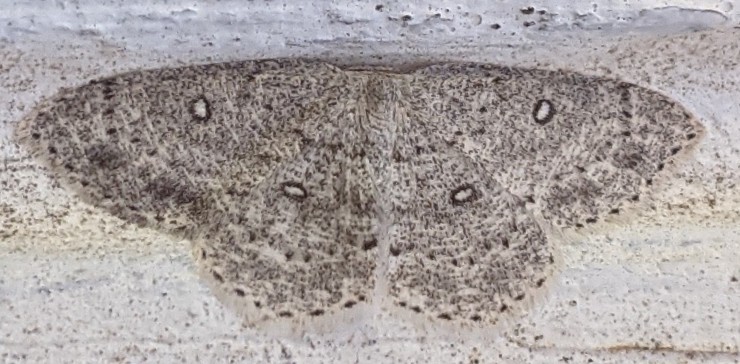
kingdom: Animalia
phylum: Arthropoda
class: Insecta
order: Lepidoptera
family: Geometridae
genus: Cyclophora
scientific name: Cyclophora pendulinaria
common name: Sweet fern geometer
